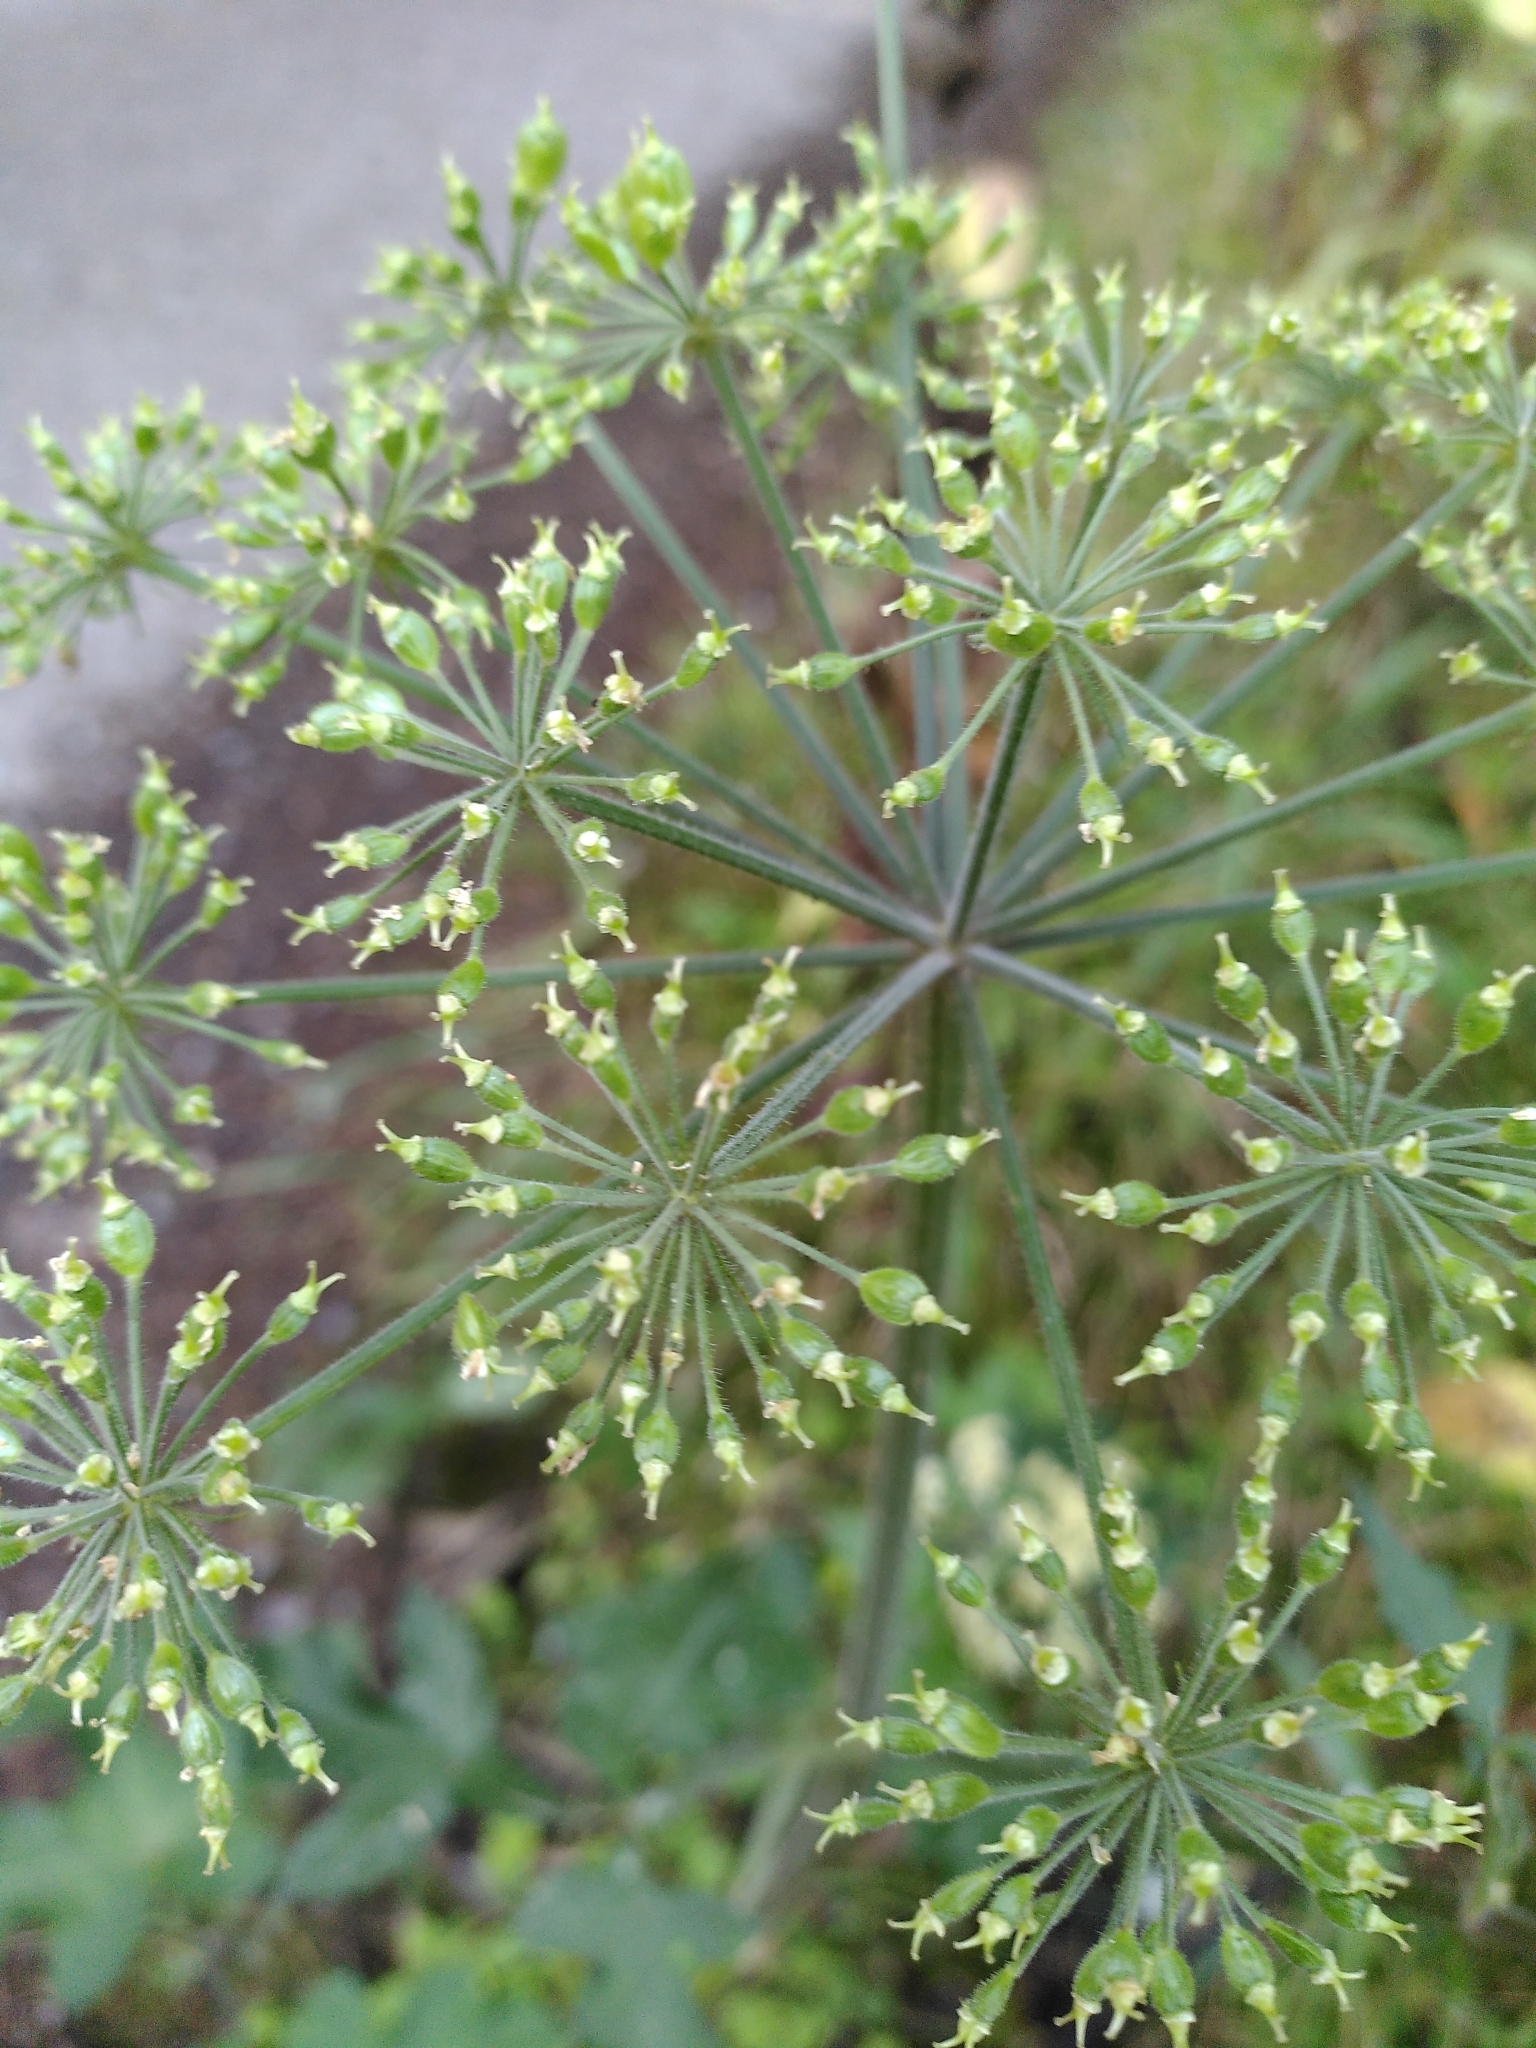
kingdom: Plantae
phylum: Tracheophyta
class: Magnoliopsida
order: Apiales
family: Apiaceae
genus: Heracleum
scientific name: Heracleum sphondylium
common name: Hogweed
